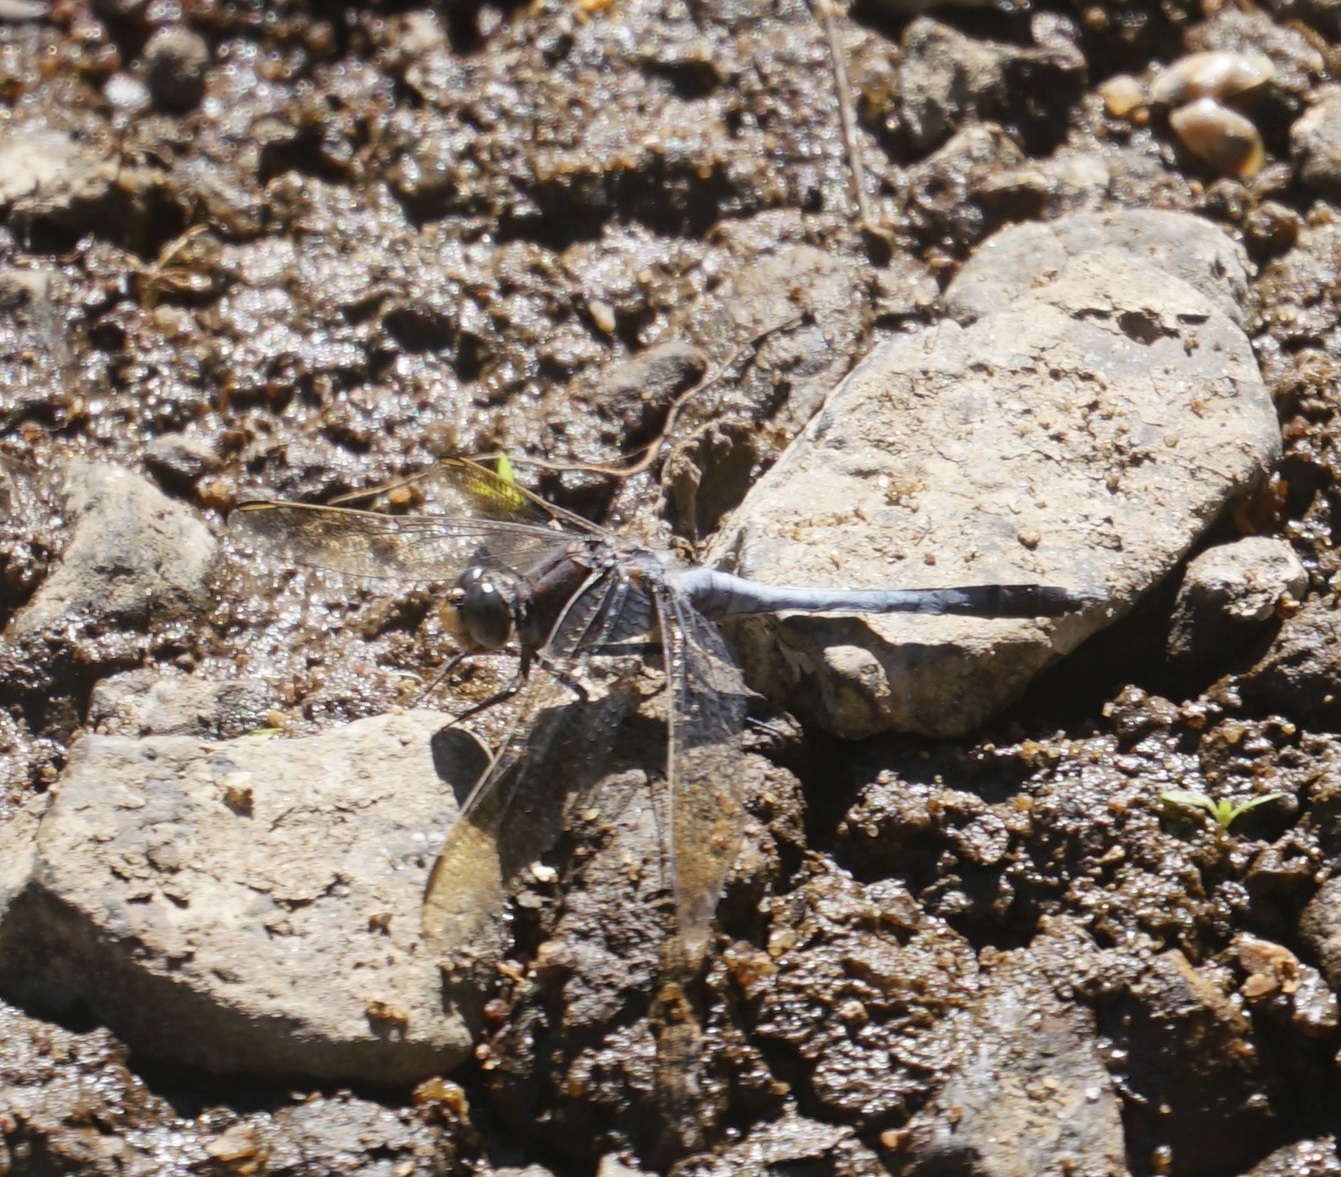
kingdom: Animalia
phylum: Arthropoda
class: Insecta
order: Odonata
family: Libellulidae
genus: Orthetrum
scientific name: Orthetrum caledonicum
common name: Blue skimmer
